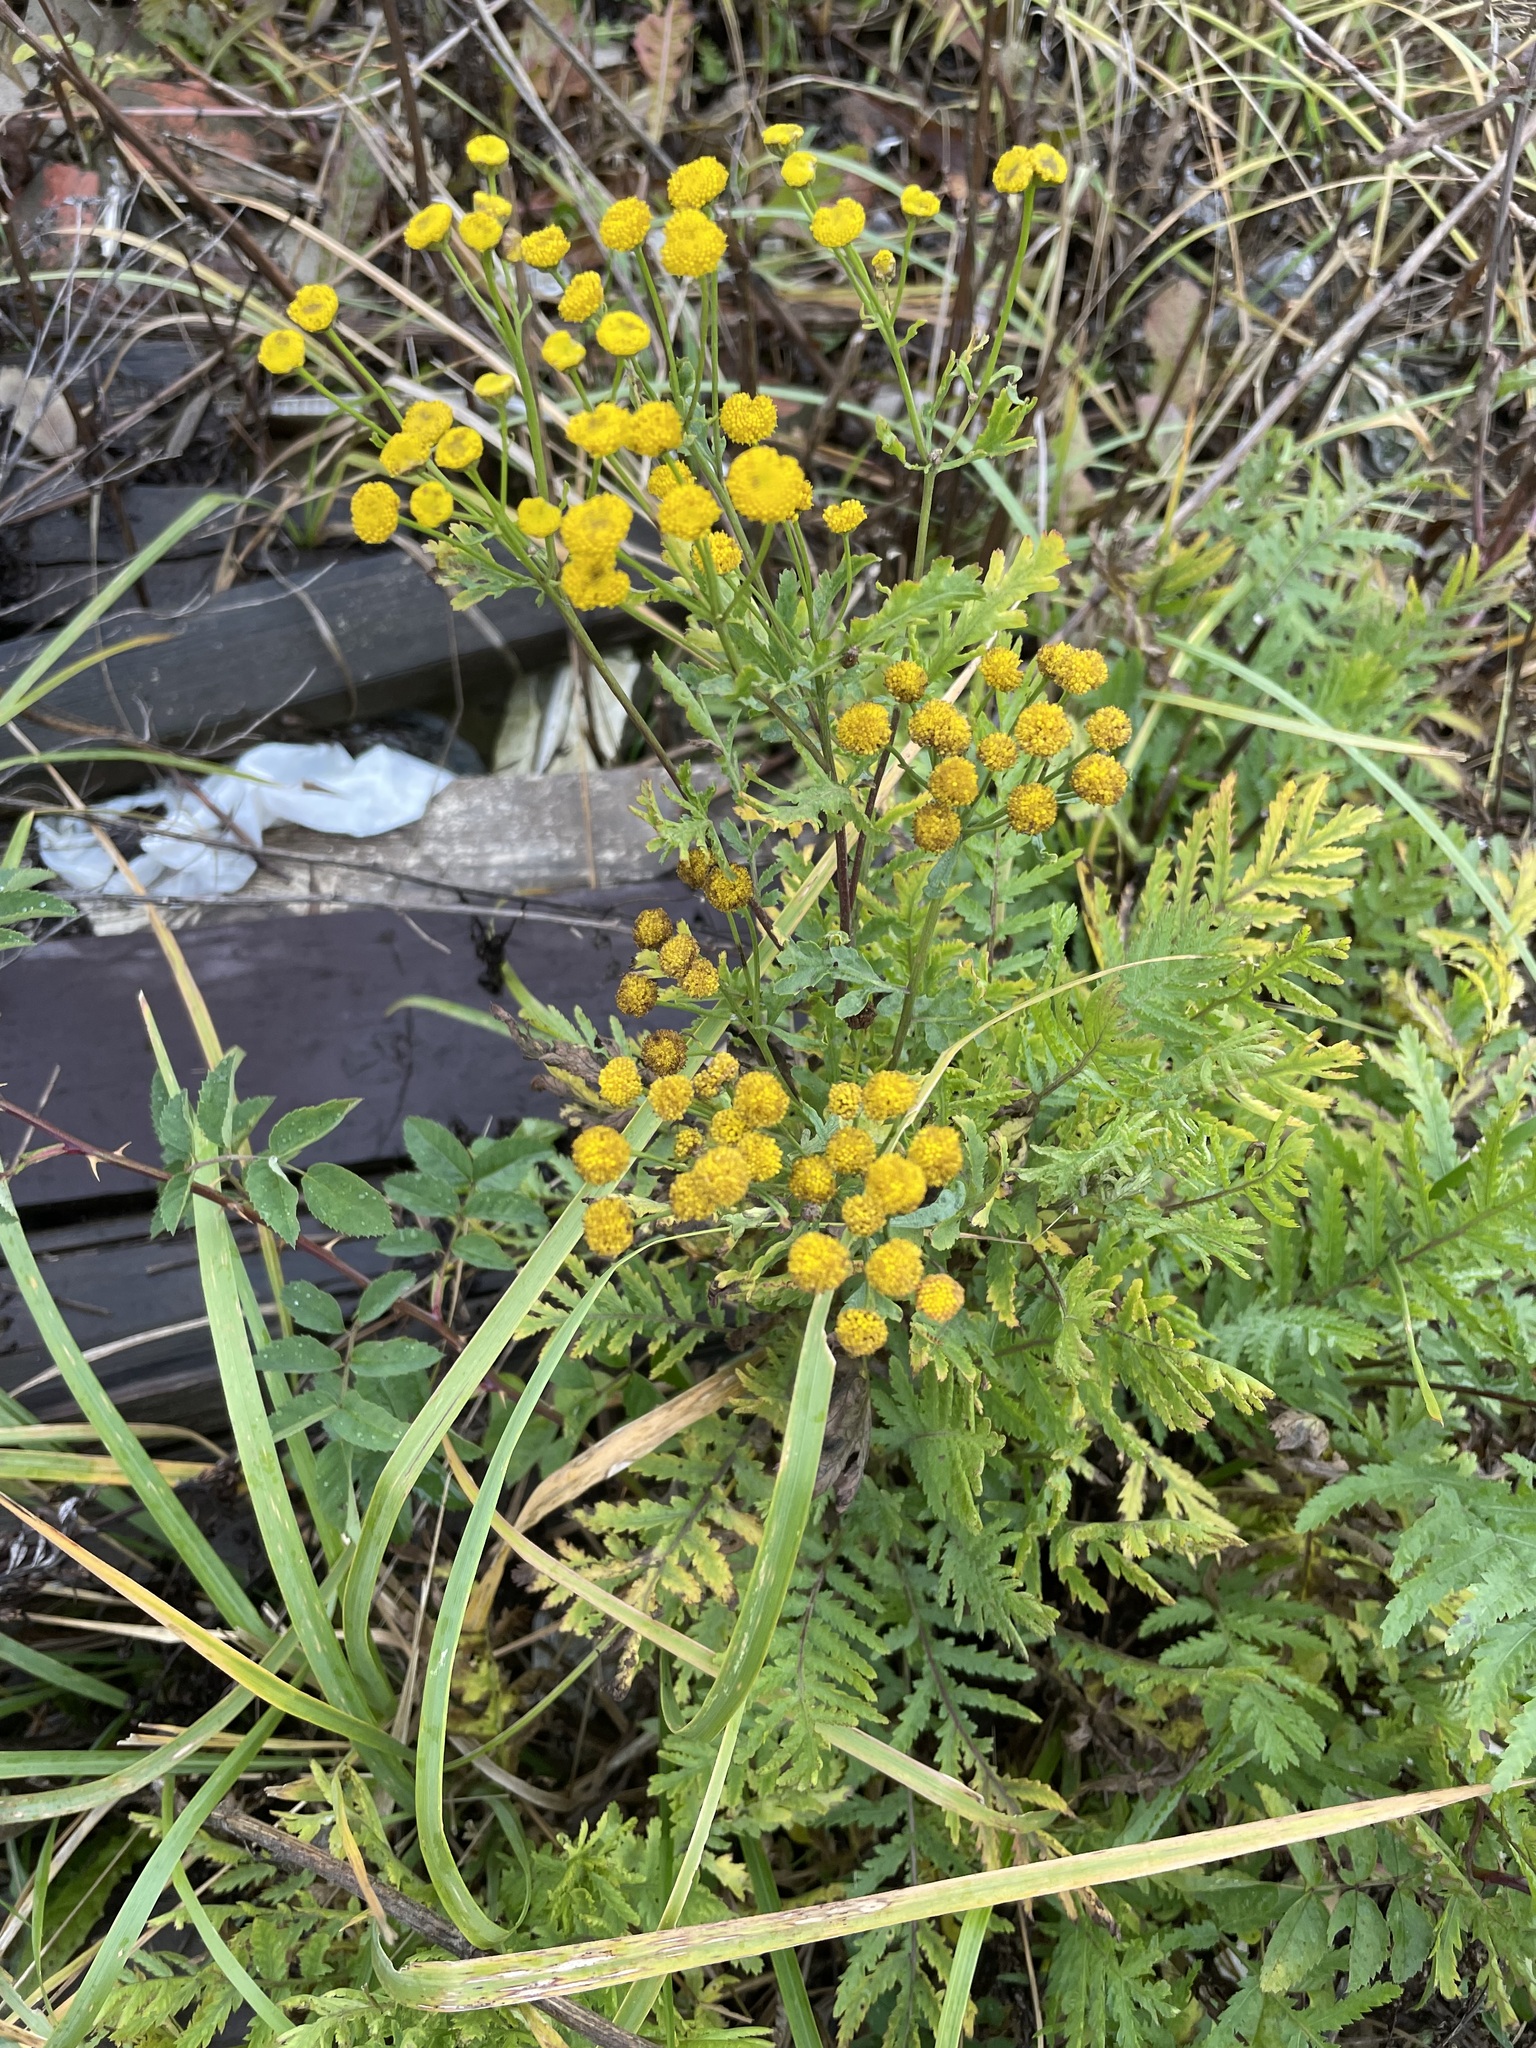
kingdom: Plantae
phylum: Tracheophyta
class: Magnoliopsida
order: Asterales
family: Asteraceae
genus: Tanacetum
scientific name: Tanacetum vulgare
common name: Common tansy
